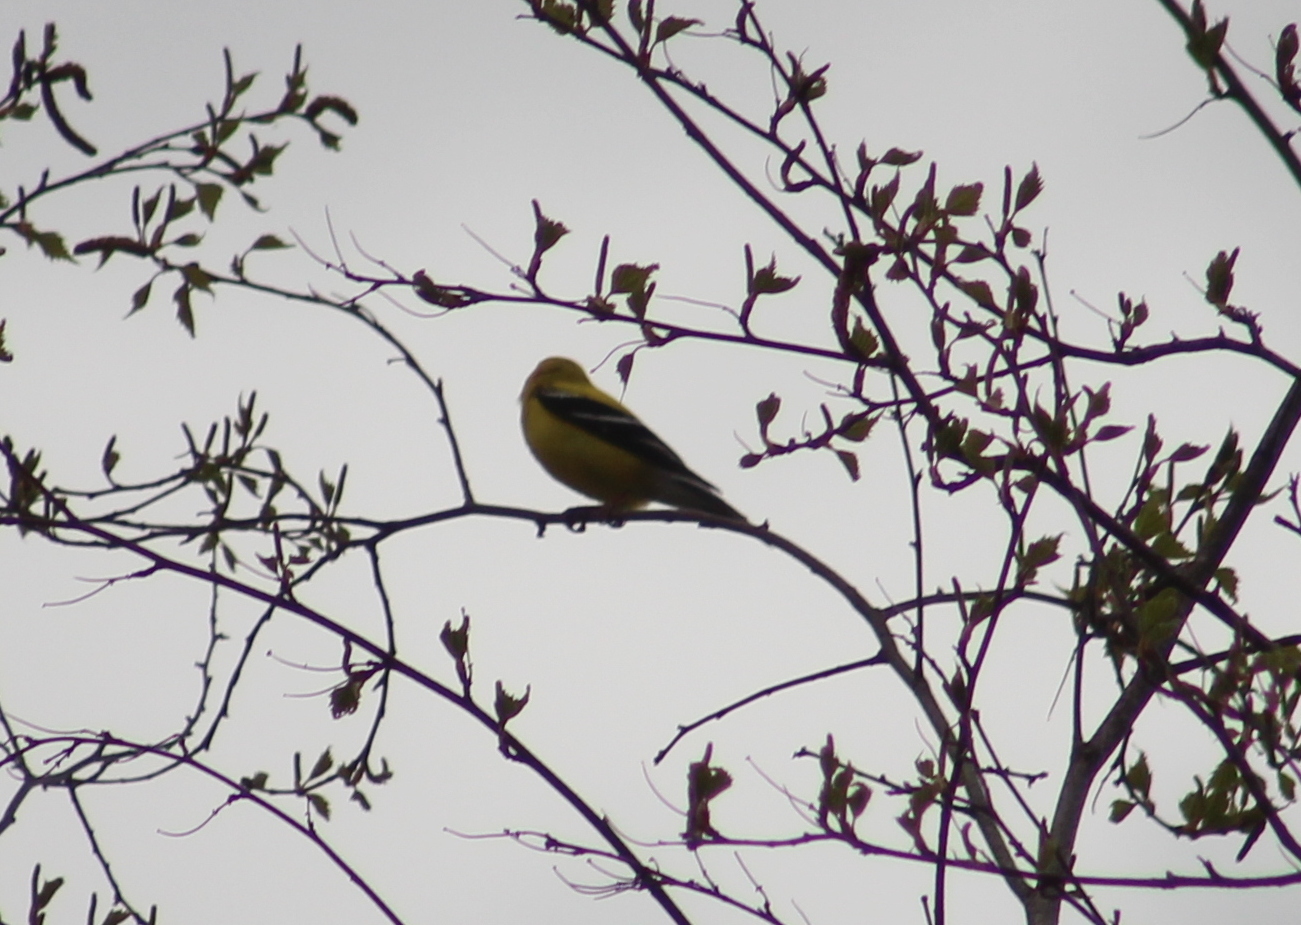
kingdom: Animalia
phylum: Chordata
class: Aves
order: Passeriformes
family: Fringillidae
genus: Spinus
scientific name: Spinus tristis
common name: American goldfinch
